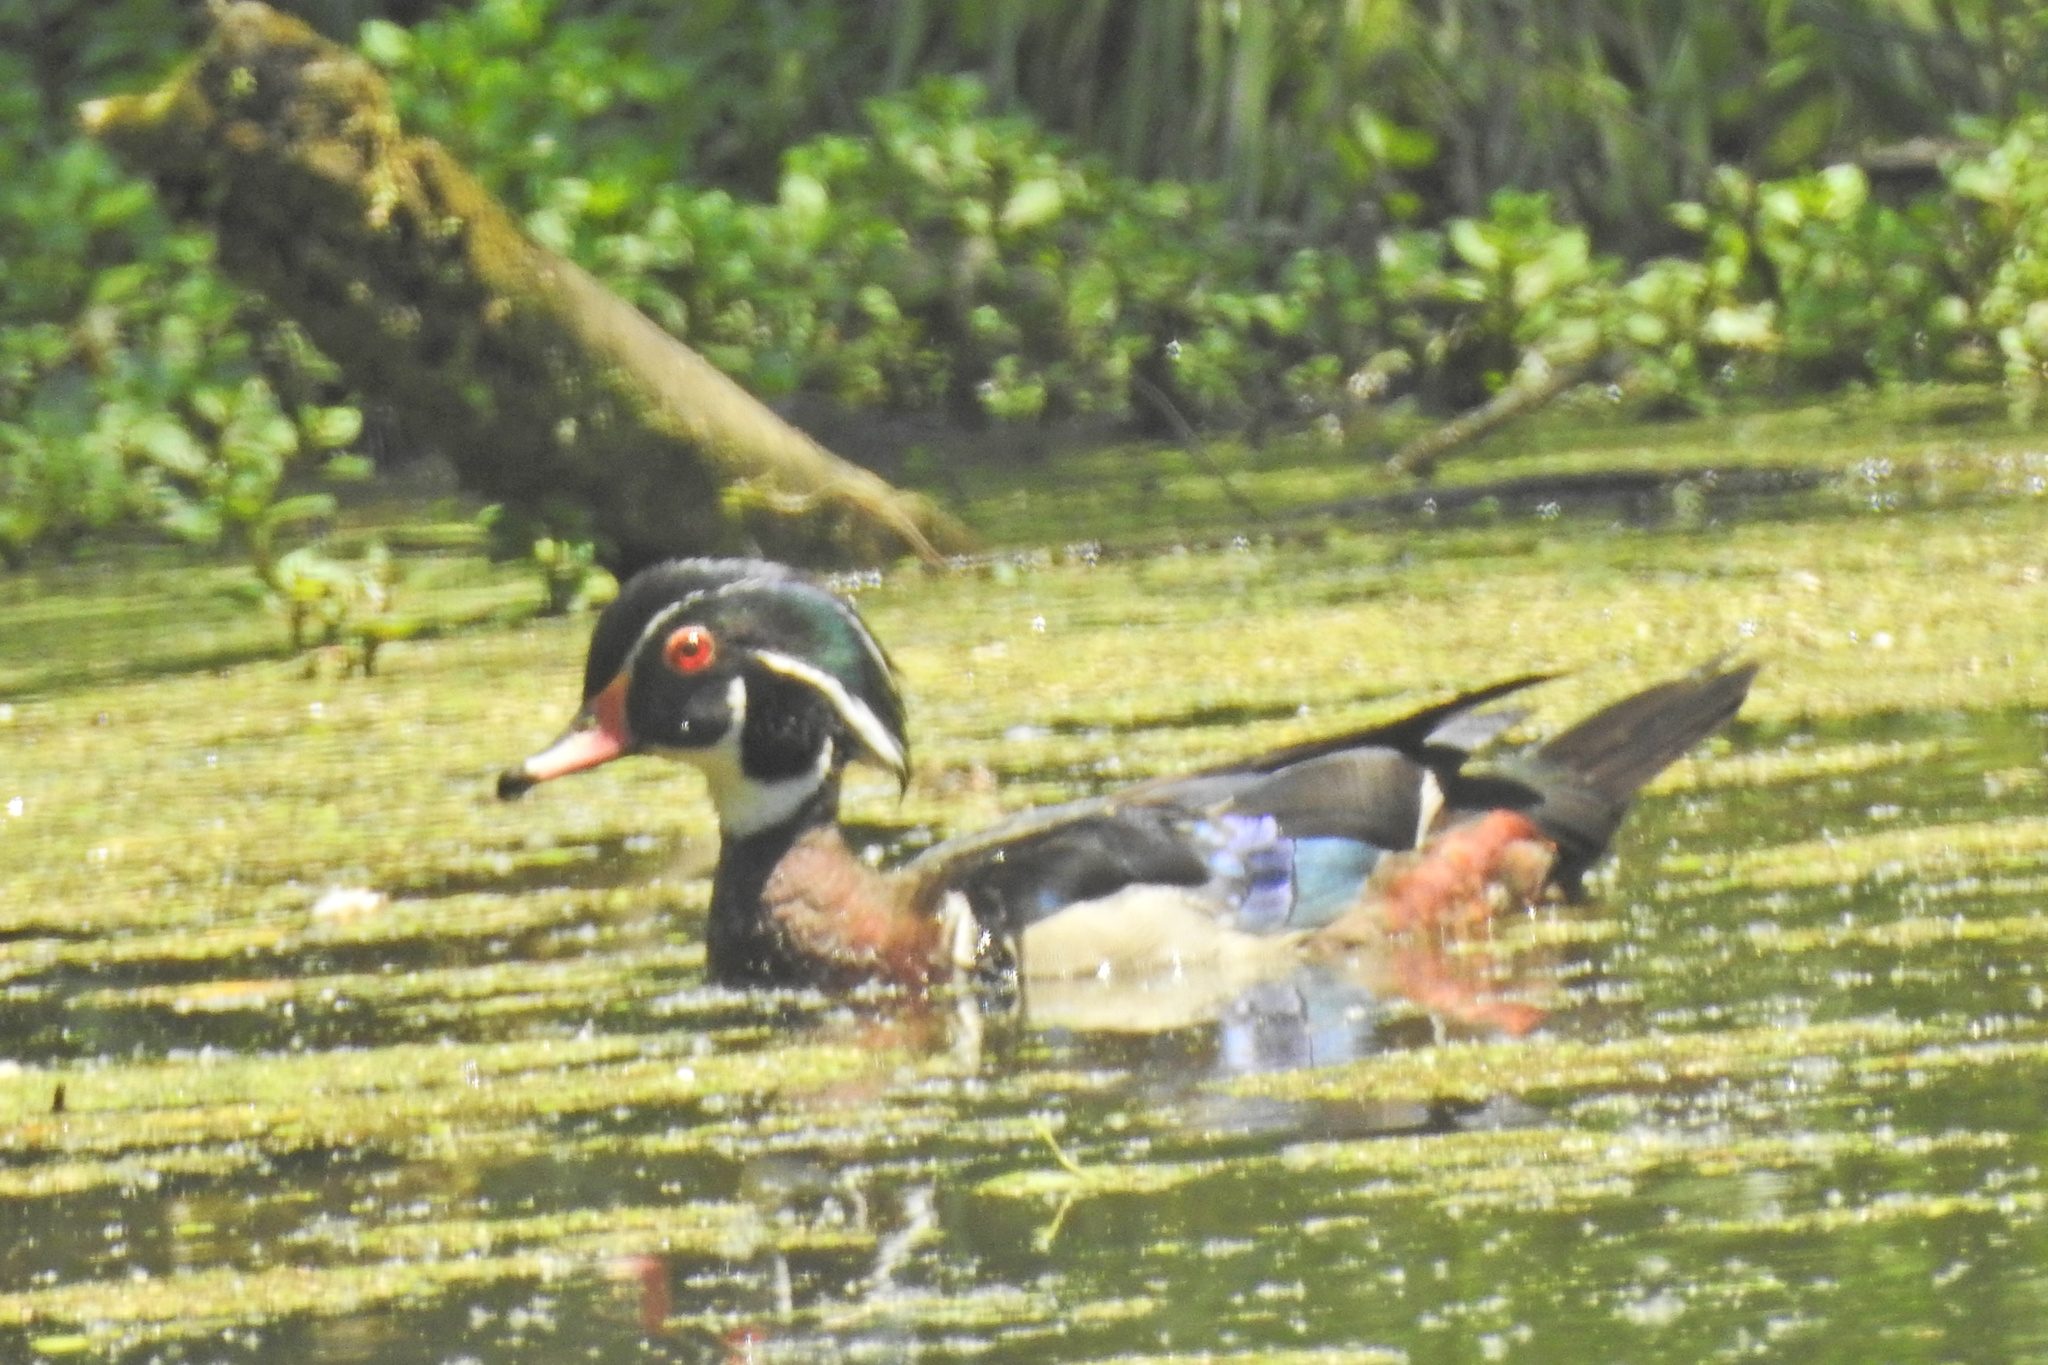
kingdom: Animalia
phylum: Chordata
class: Aves
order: Anseriformes
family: Anatidae
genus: Aix
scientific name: Aix sponsa
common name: Wood duck
